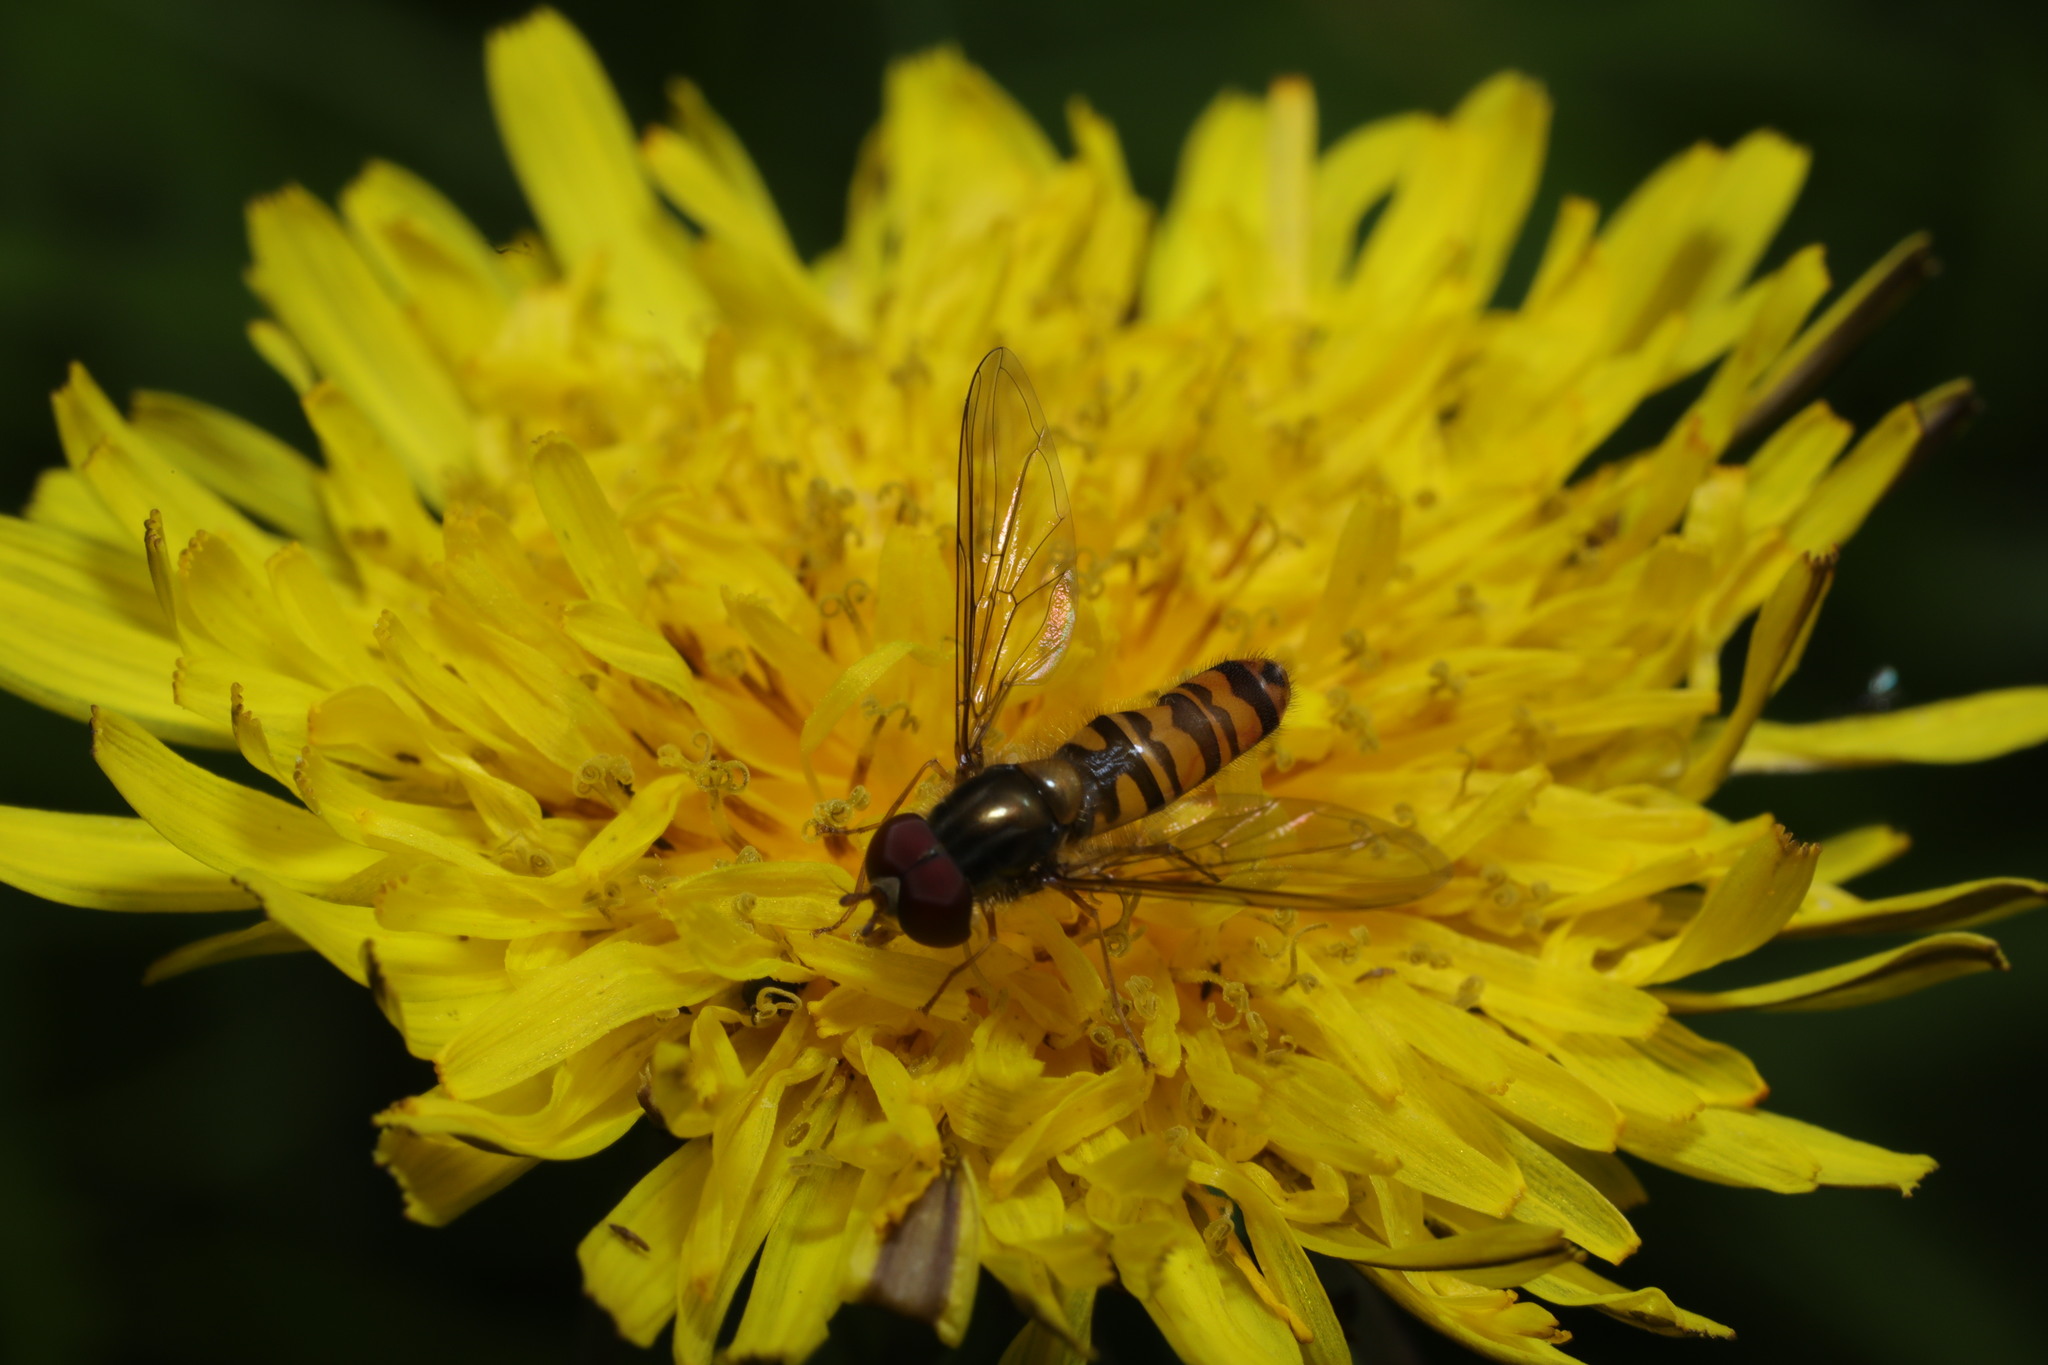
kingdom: Animalia
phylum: Arthropoda
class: Insecta
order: Diptera
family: Syrphidae
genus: Episyrphus
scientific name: Episyrphus balteatus
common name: Marmalade hoverfly
